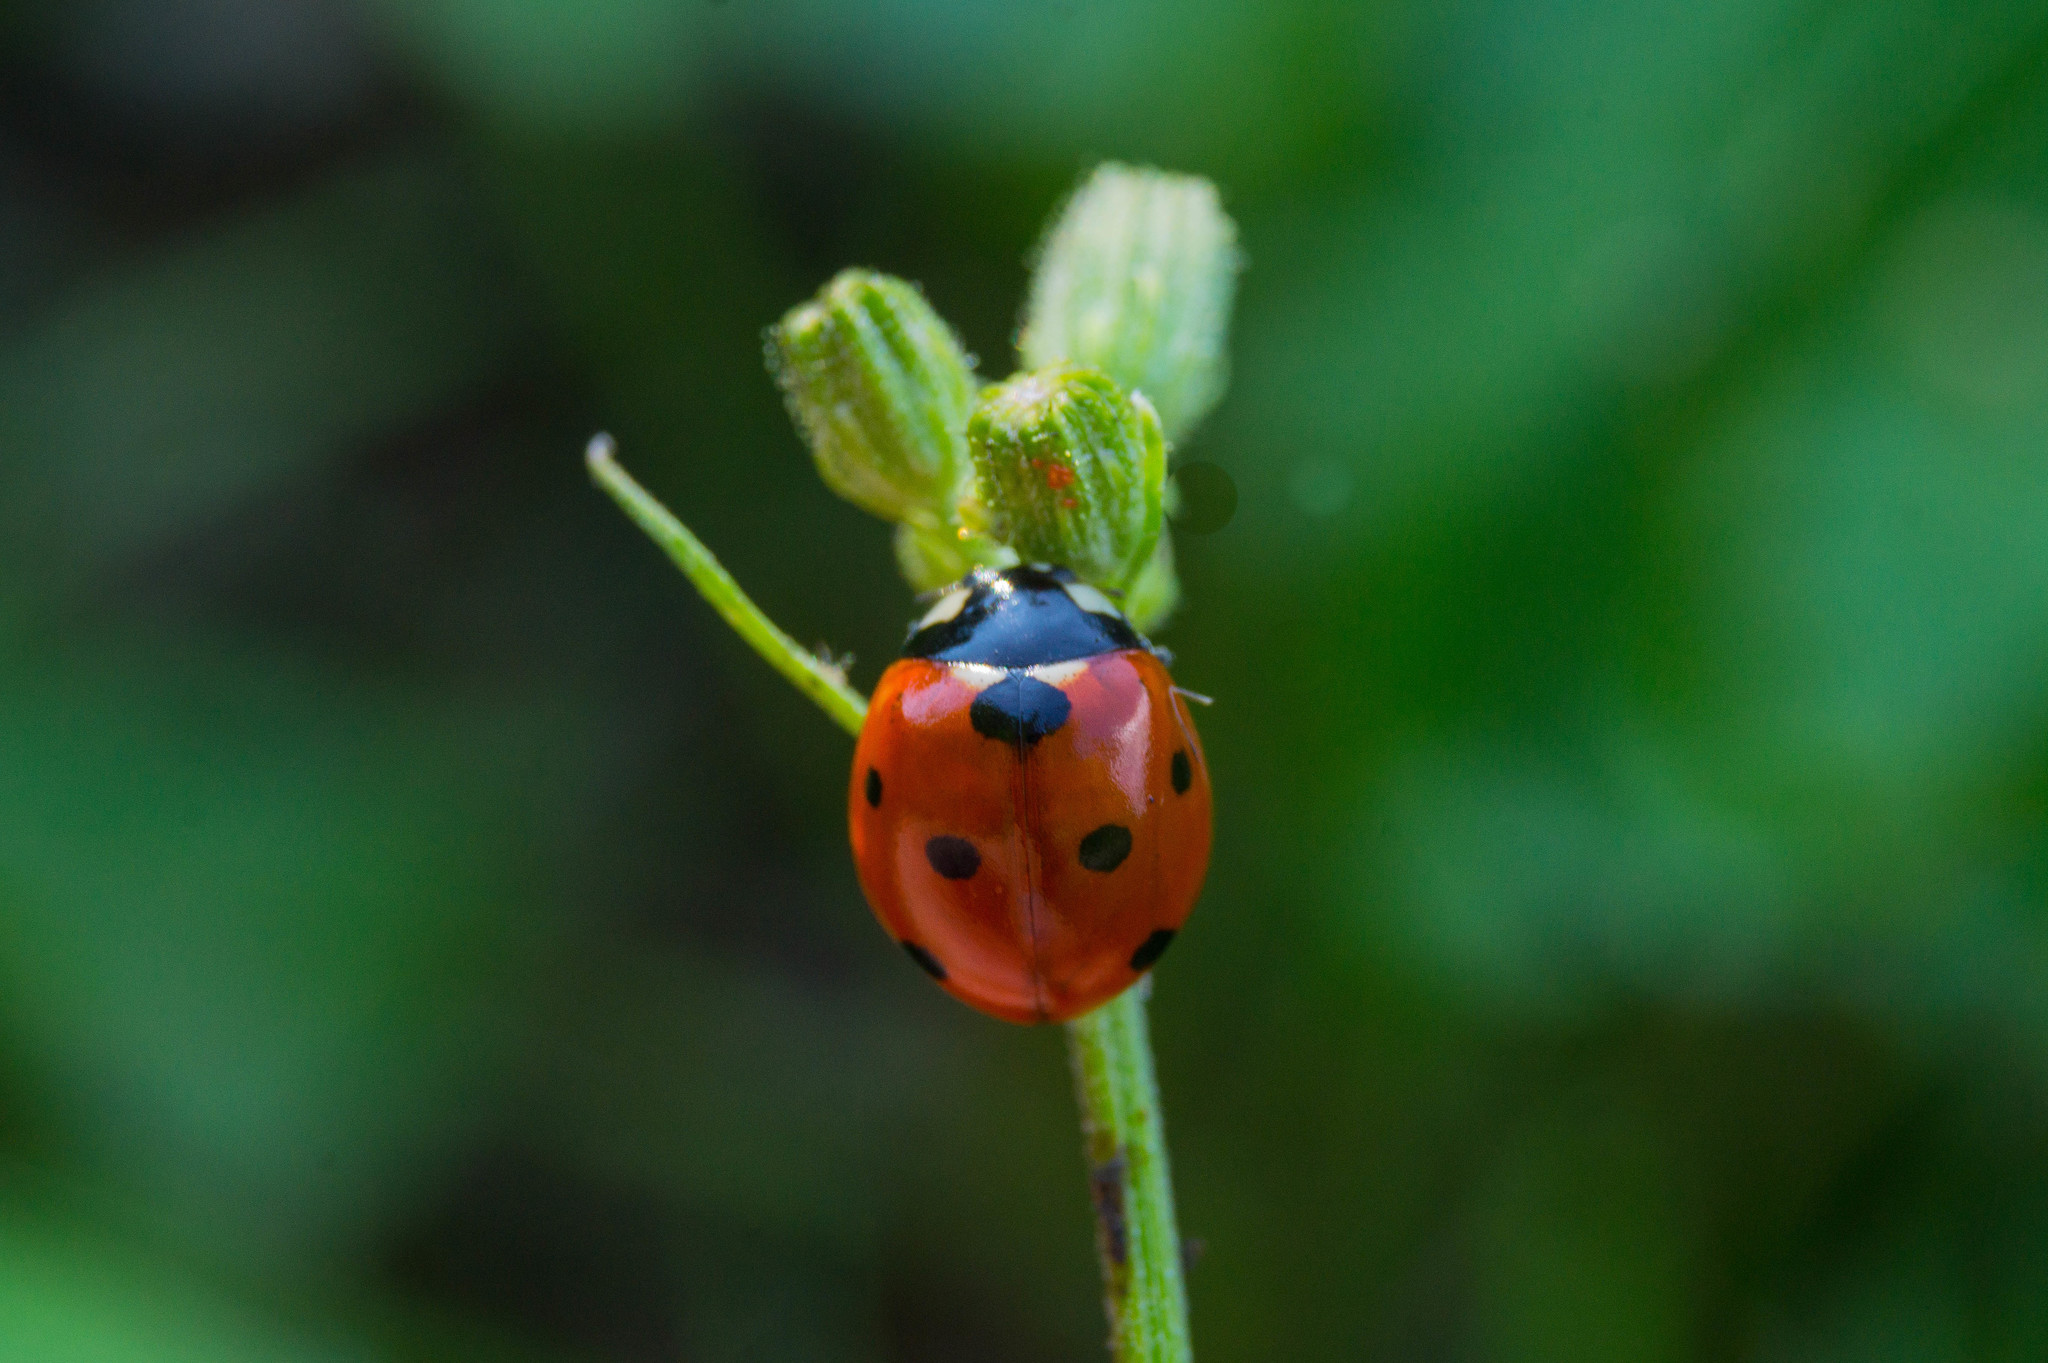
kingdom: Animalia
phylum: Arthropoda
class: Insecta
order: Coleoptera
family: Coccinellidae
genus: Coccinella
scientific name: Coccinella septempunctata
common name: Sevenspotted lady beetle
